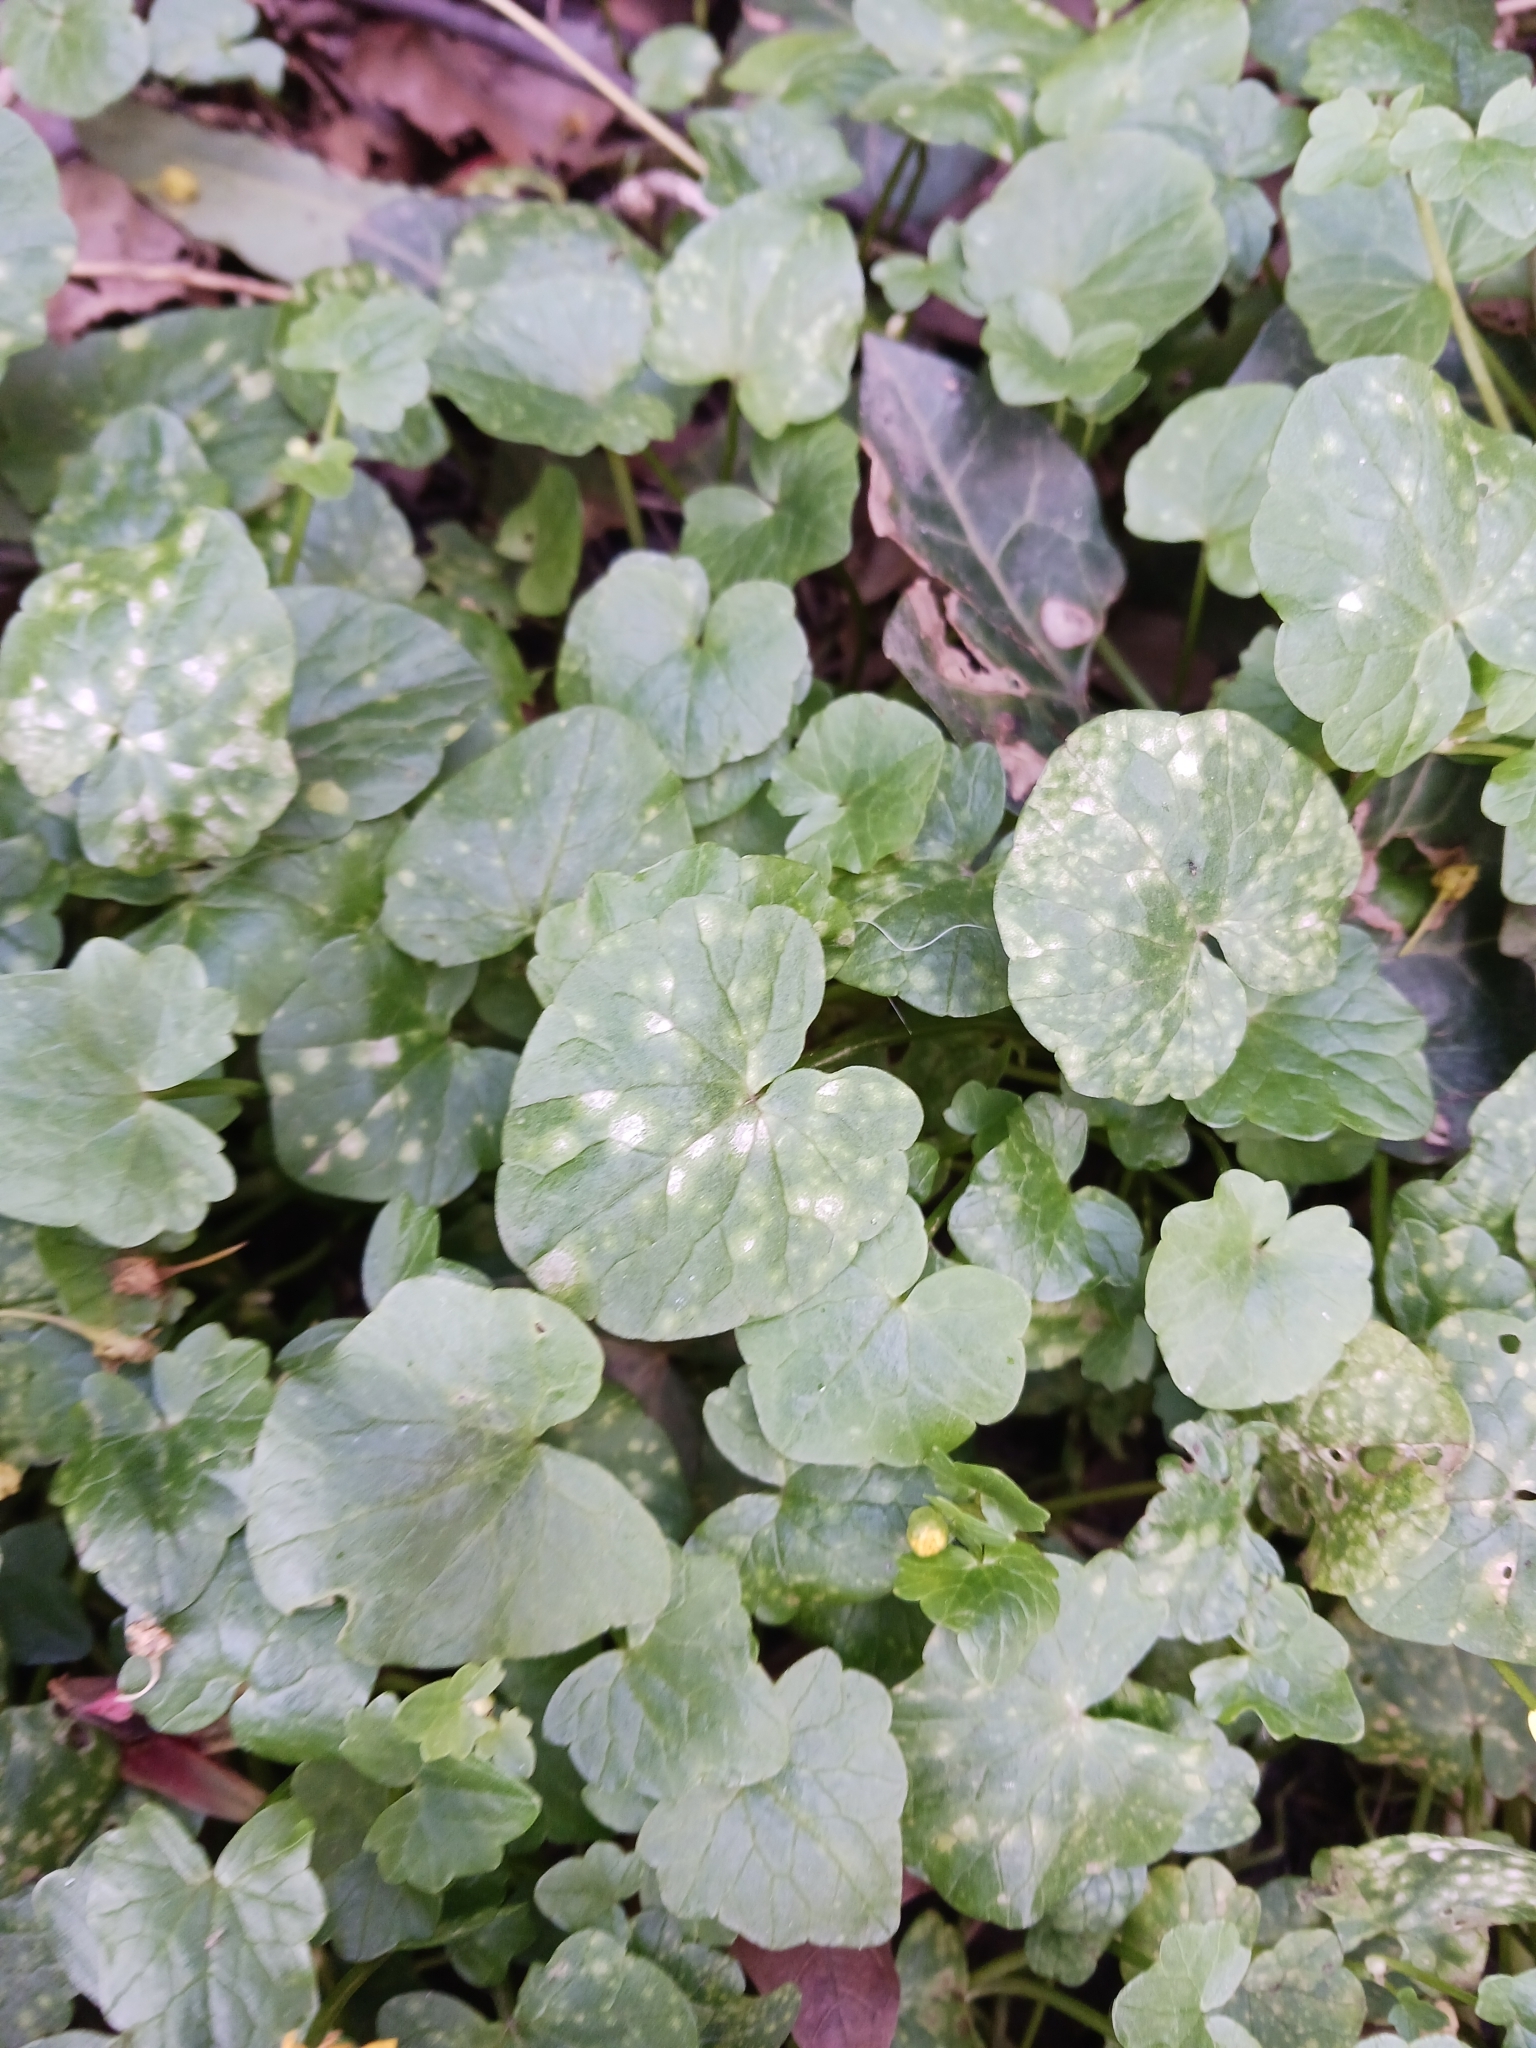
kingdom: Fungi
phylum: Basidiomycota
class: Exobasidiomycetes
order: Entylomatales
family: Entylomataceae
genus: Entyloma
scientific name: Entyloma ficariae
